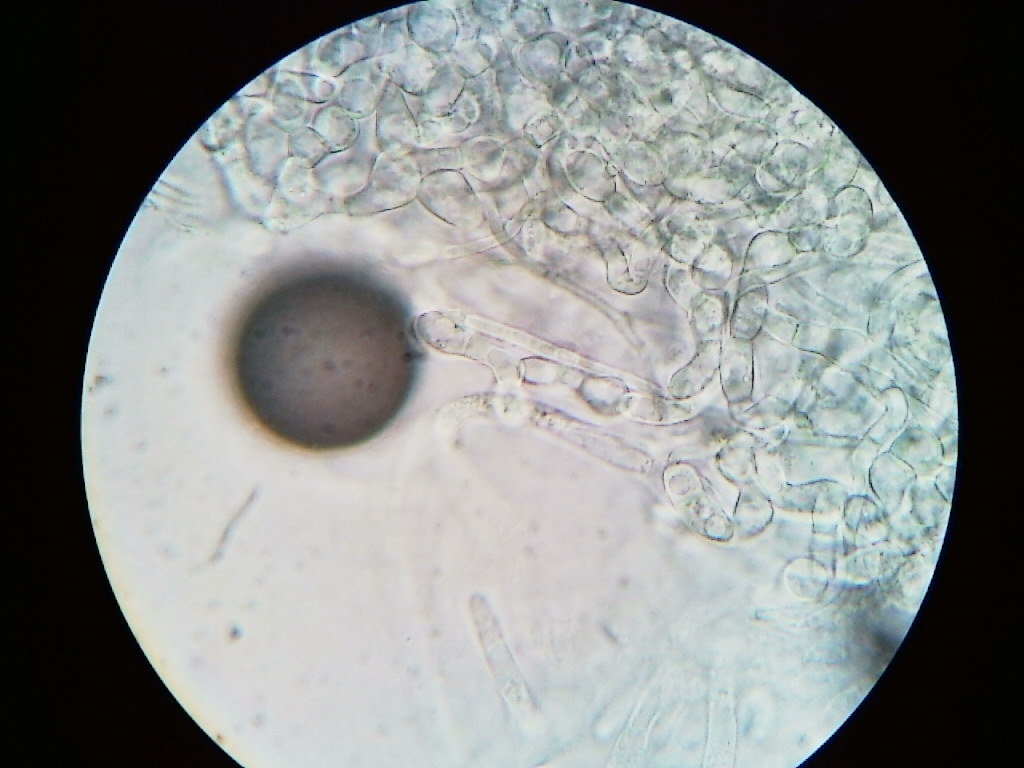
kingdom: Fungi
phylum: Ascomycota
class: Sordariomycetes
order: Hypocreales
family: Bionectriaceae
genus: Nectriopsis
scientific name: Nectriopsis tremellicola
